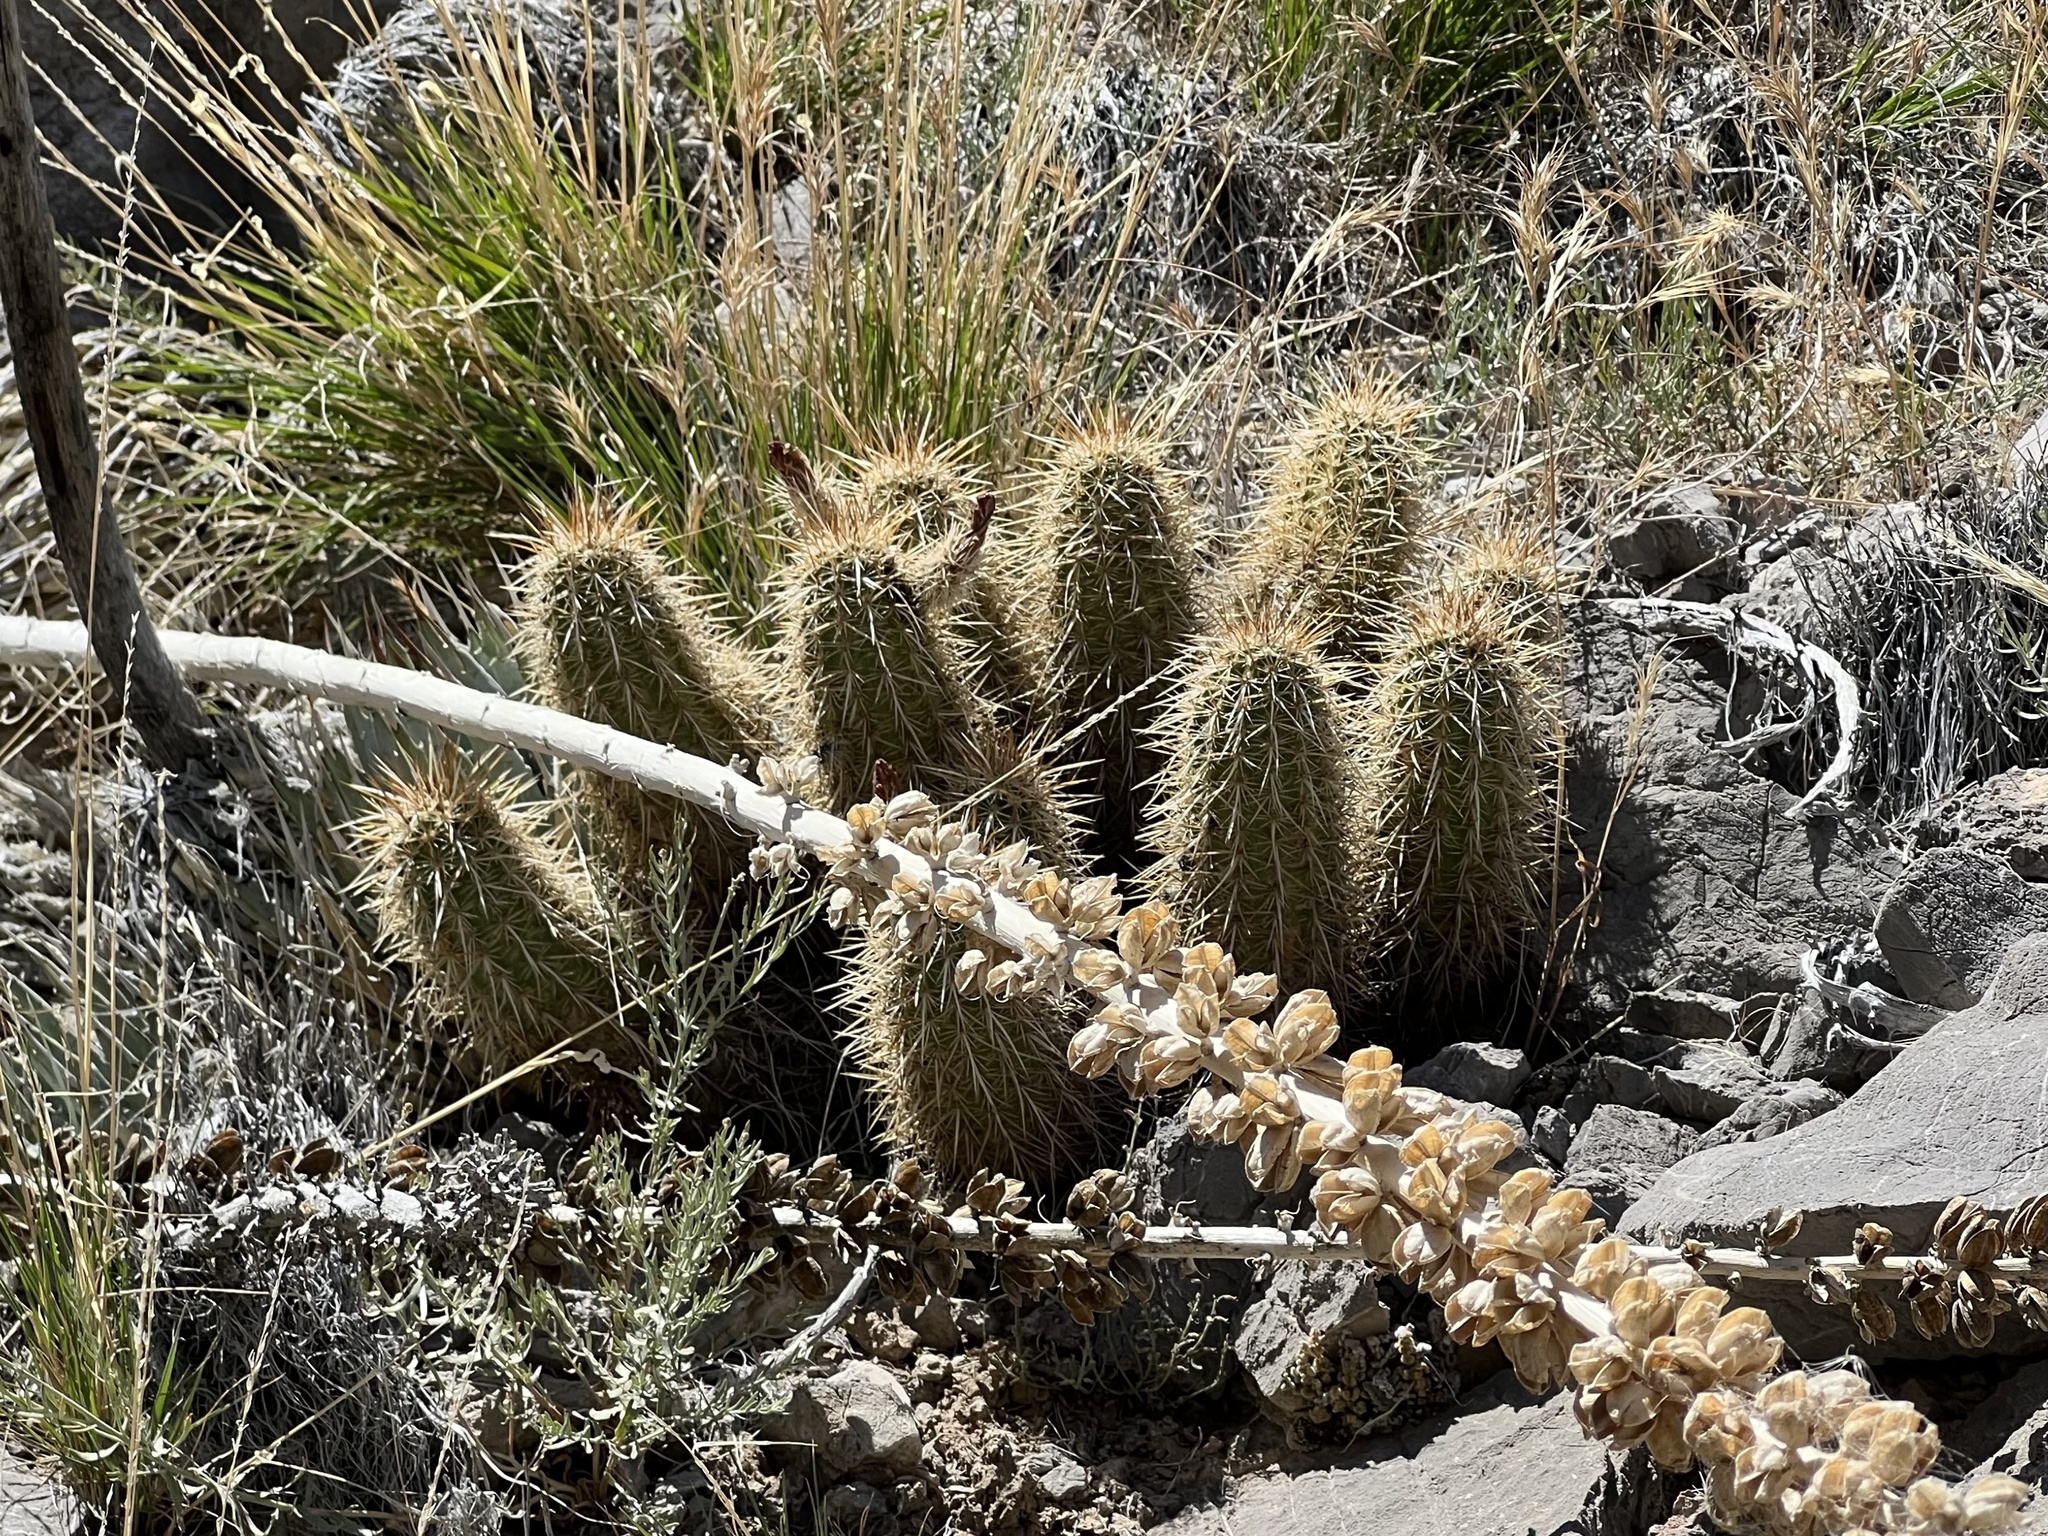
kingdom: Plantae
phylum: Tracheophyta
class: Magnoliopsida
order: Caryophyllales
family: Cactaceae
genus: Echinocereus
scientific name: Echinocereus engelmannii
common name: Engelmann's hedgehog cactus
